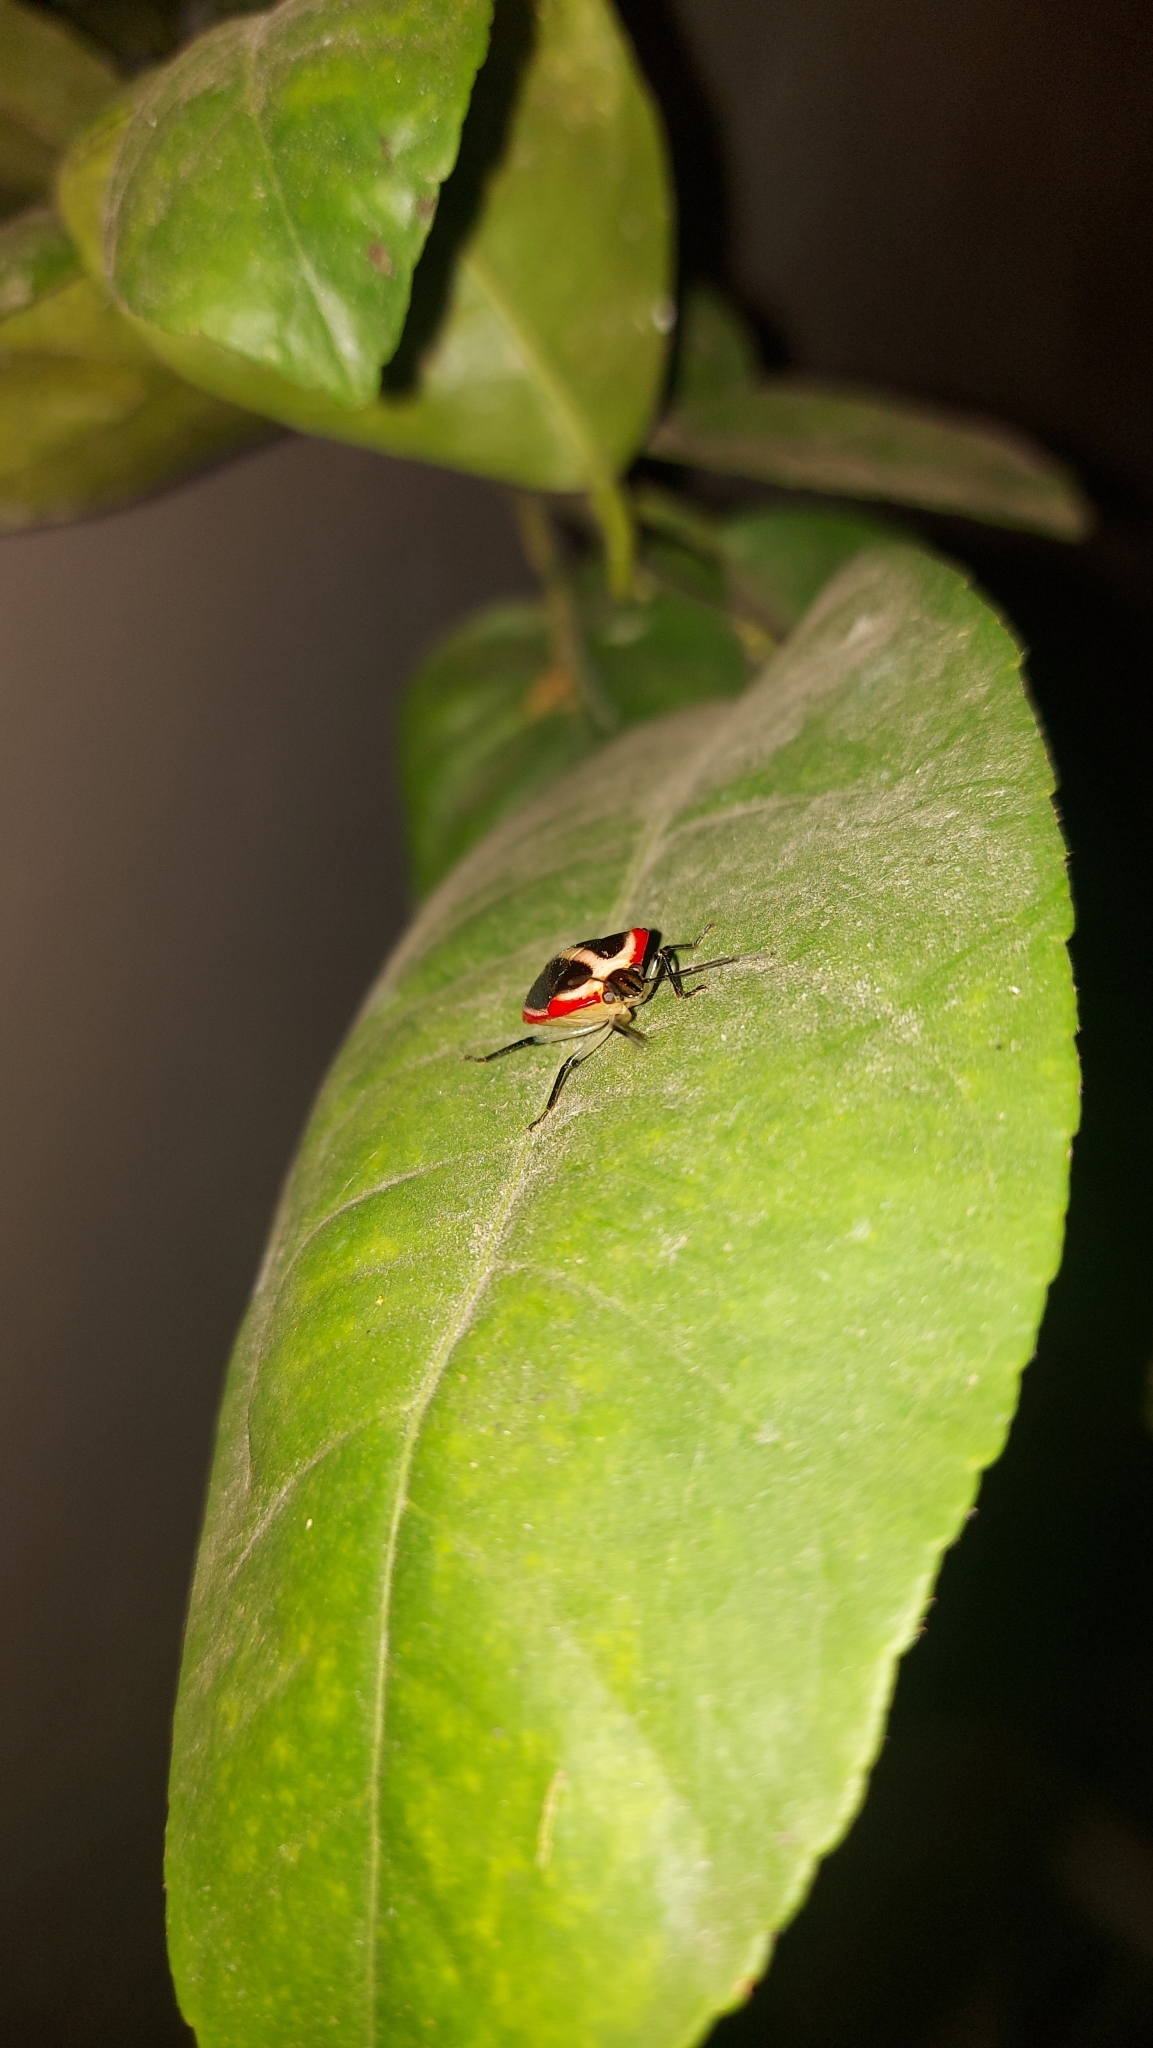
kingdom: Animalia
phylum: Arthropoda
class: Insecta
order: Hemiptera
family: Pentatomidae
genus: Roferta
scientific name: Roferta marginalis
